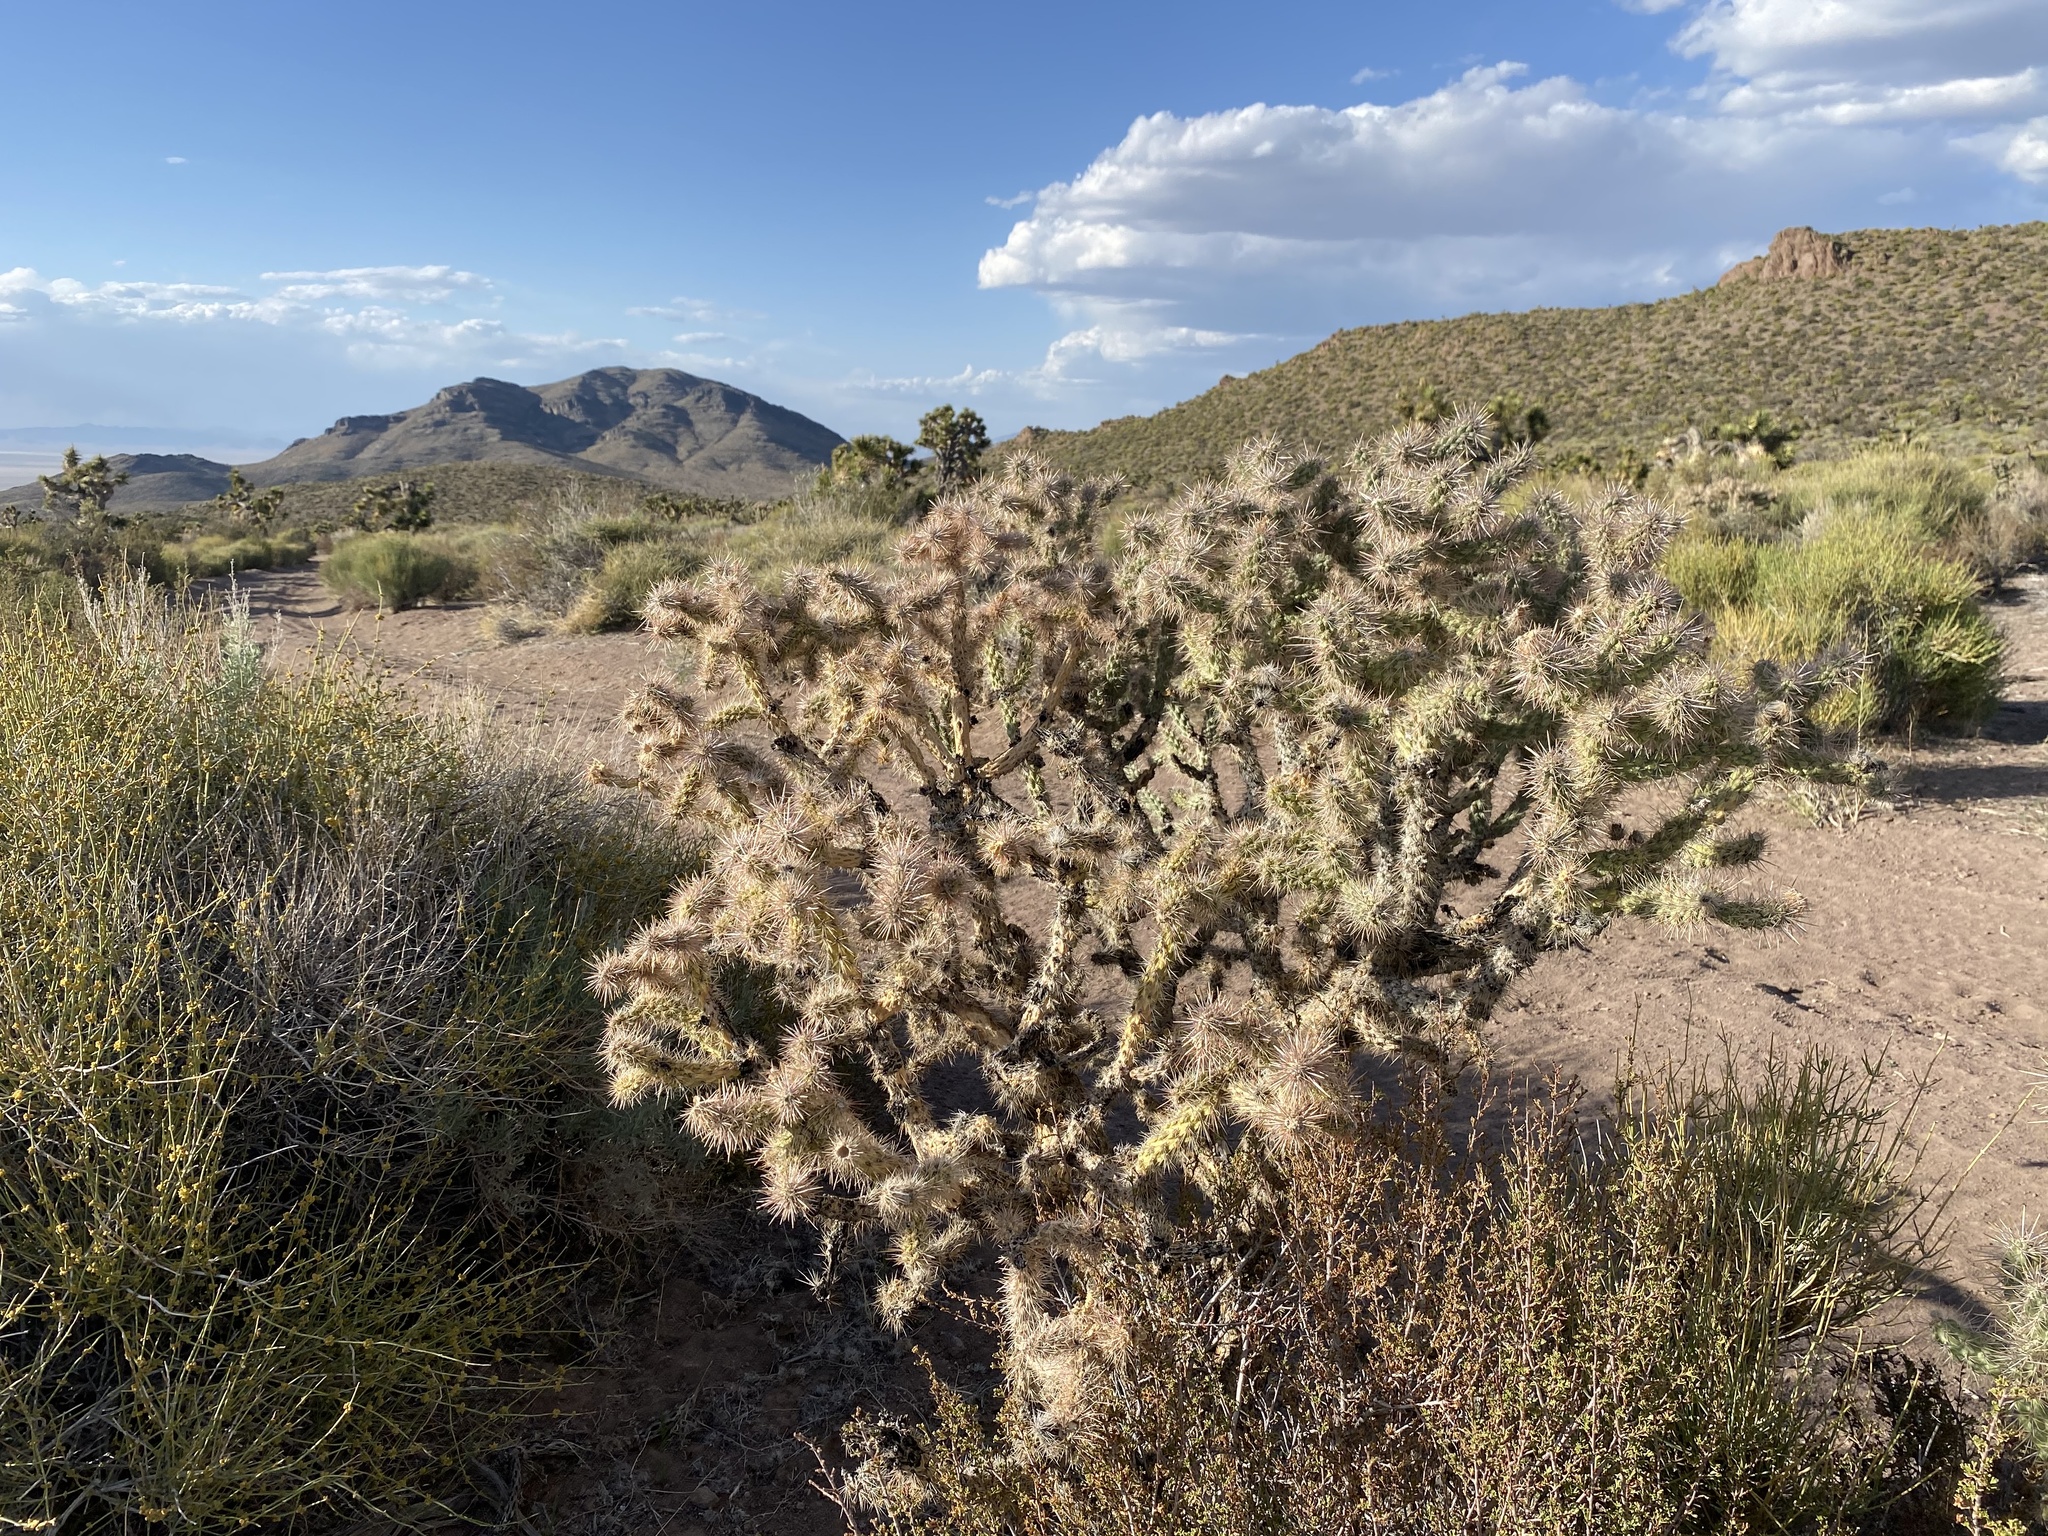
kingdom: Plantae
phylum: Tracheophyta
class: Magnoliopsida
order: Caryophyllales
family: Cactaceae
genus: Cylindropuntia
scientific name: Cylindropuntia echinocarpa
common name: Ground cholla
